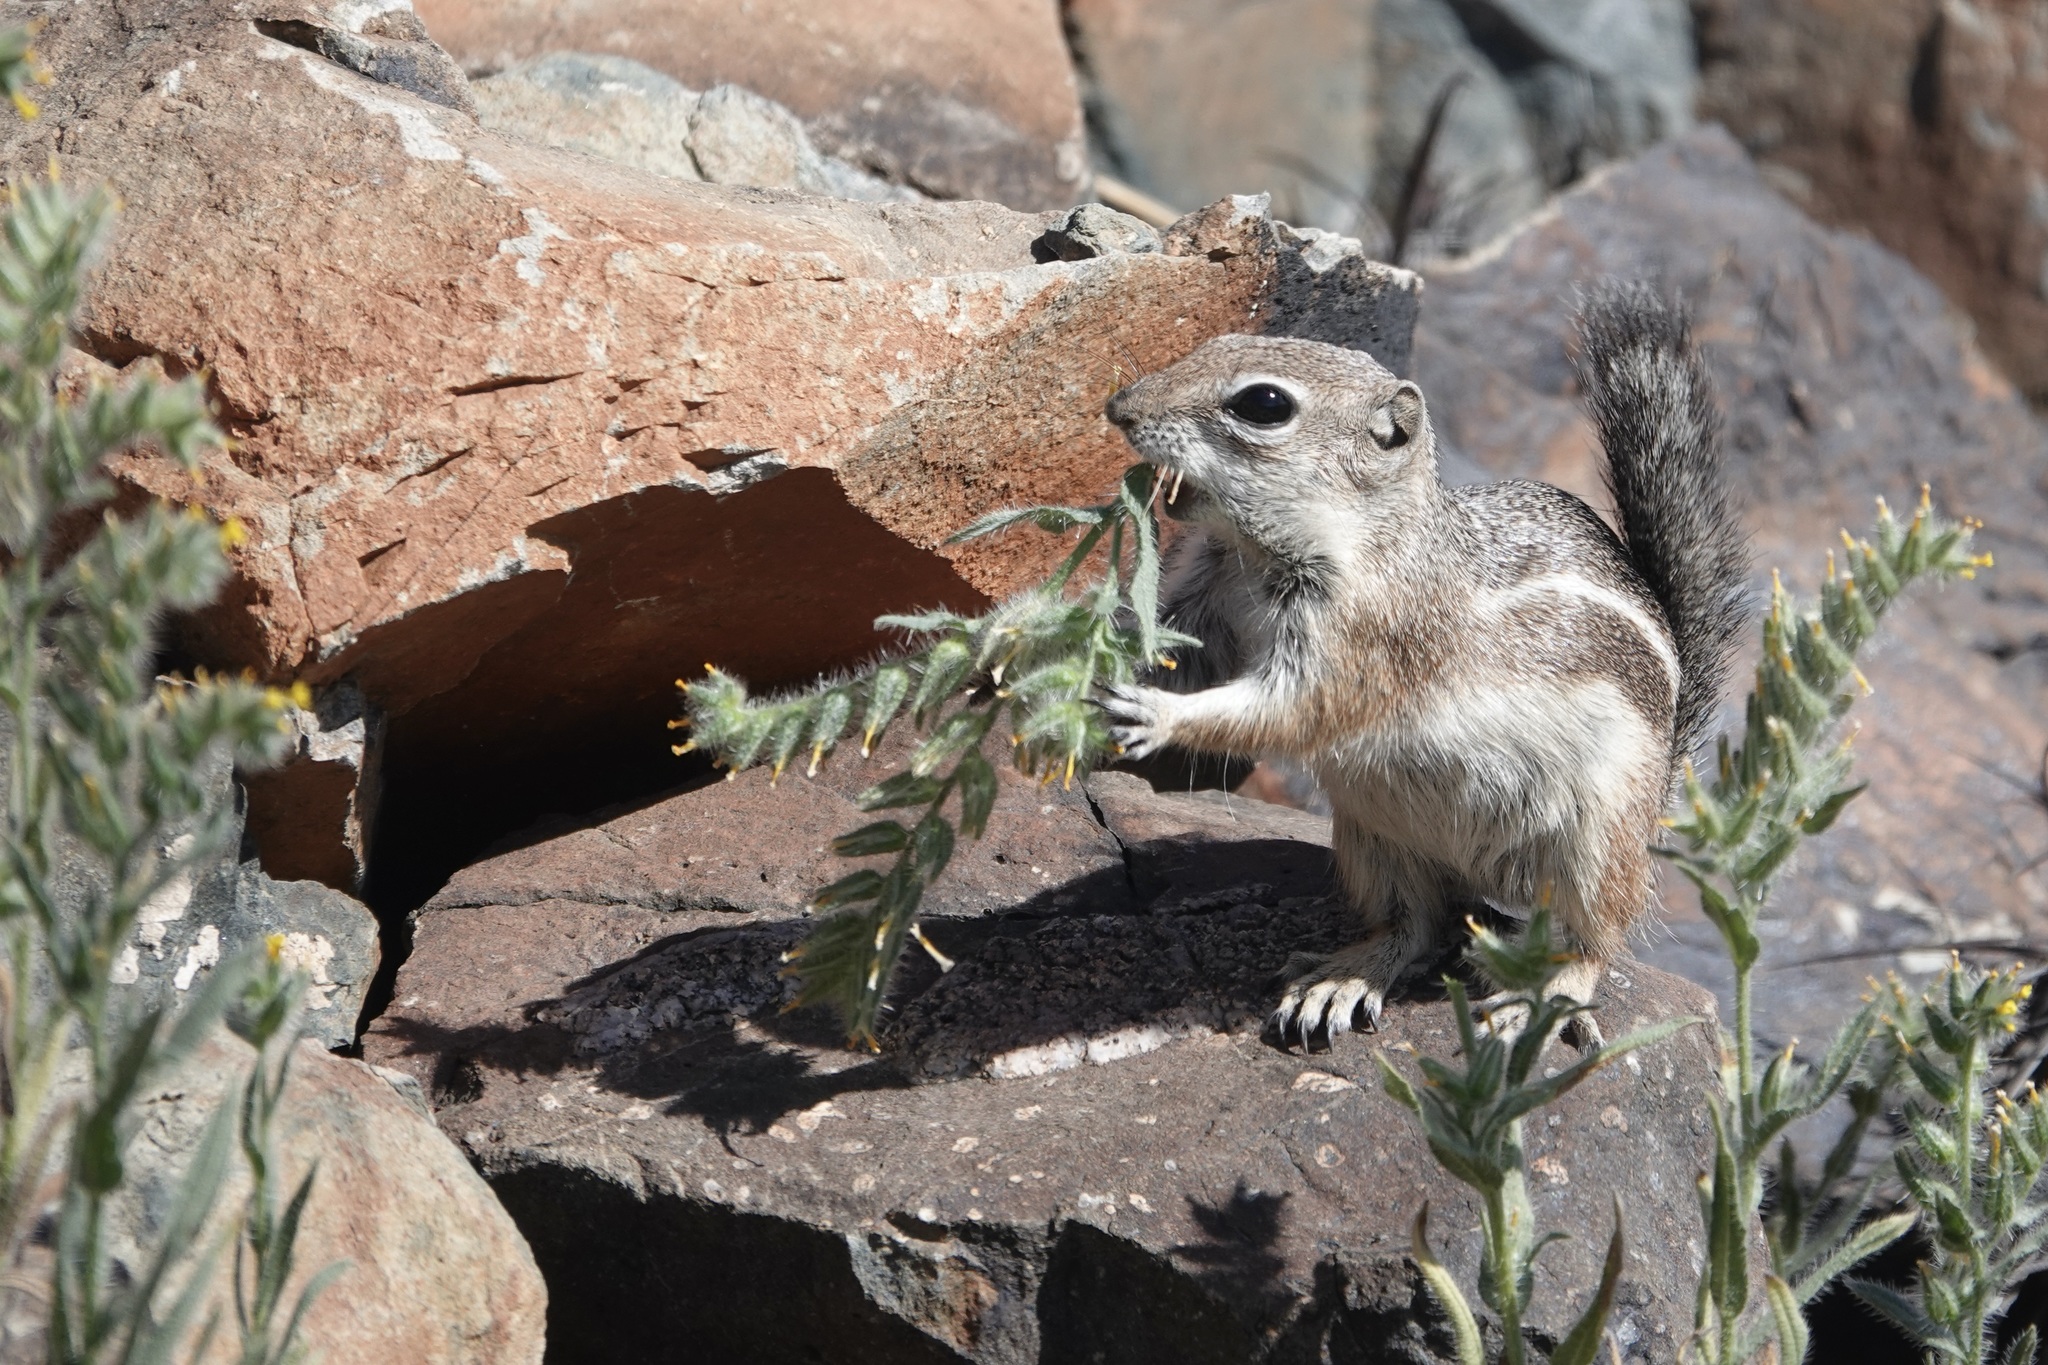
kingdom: Animalia
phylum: Chordata
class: Mammalia
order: Rodentia
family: Sciuridae
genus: Ammospermophilus
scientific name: Ammospermophilus harrisii
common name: Harris's antelope squirrel
